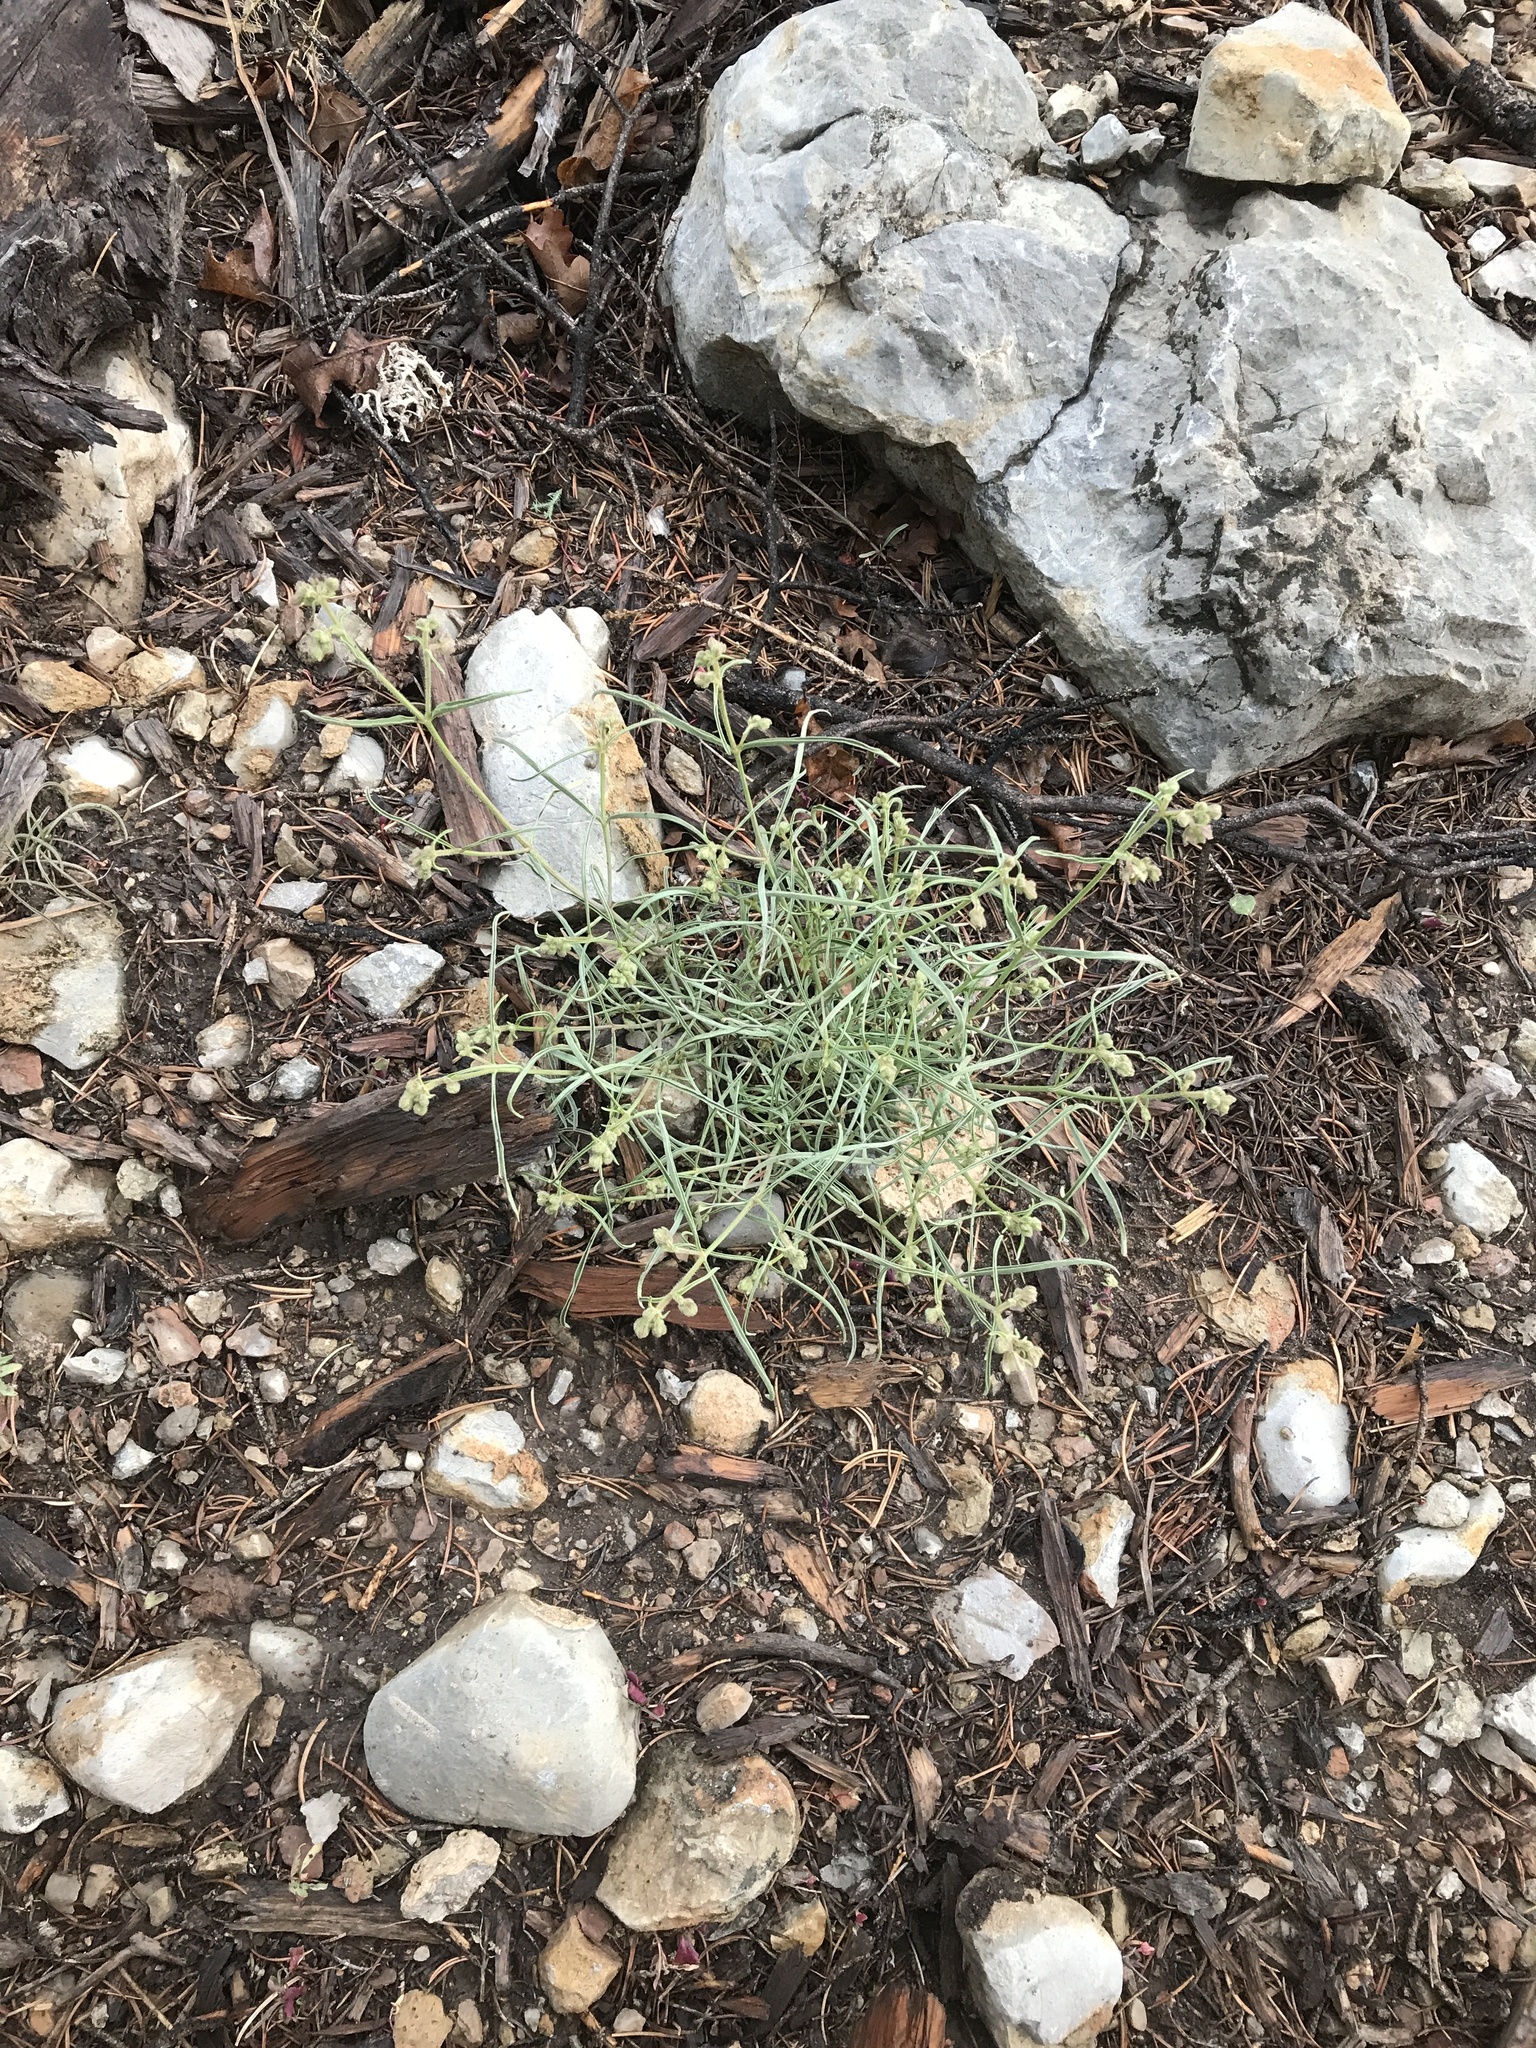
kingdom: Plantae
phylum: Tracheophyta
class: Magnoliopsida
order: Caryophyllales
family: Nyctaginaceae
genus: Mirabilis
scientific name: Mirabilis linearis
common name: Linear-leaved four-o'clock
